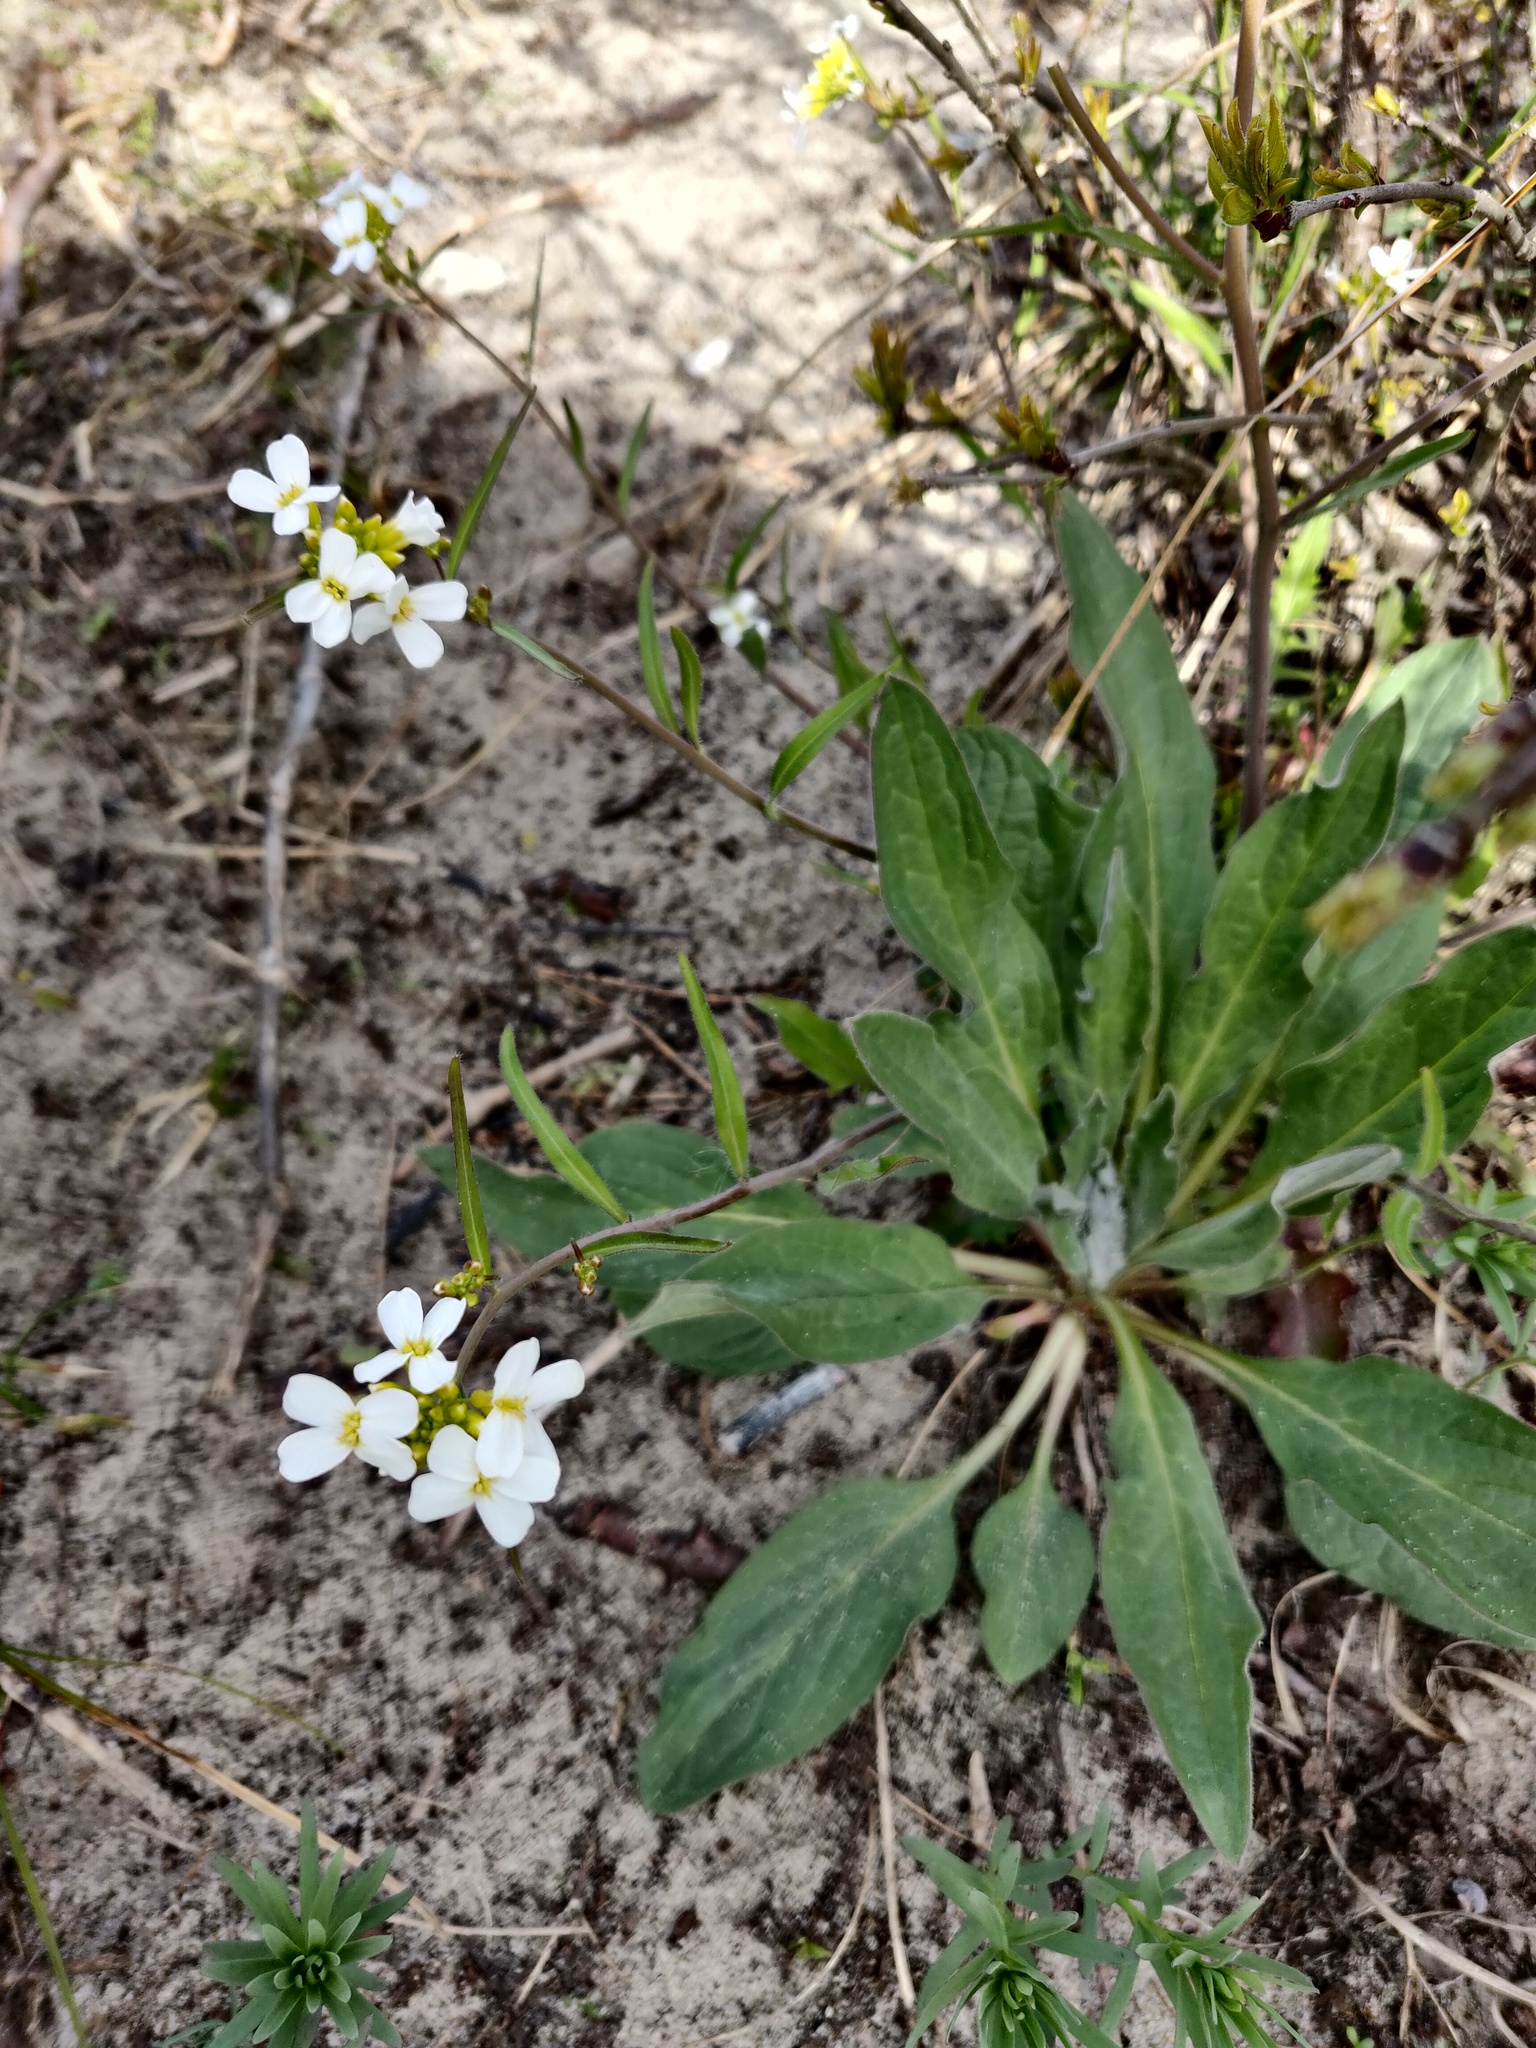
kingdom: Plantae
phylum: Tracheophyta
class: Magnoliopsida
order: Brassicales
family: Brassicaceae
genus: Arabidopsis
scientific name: Arabidopsis arenosa
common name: Sand rock-cress
